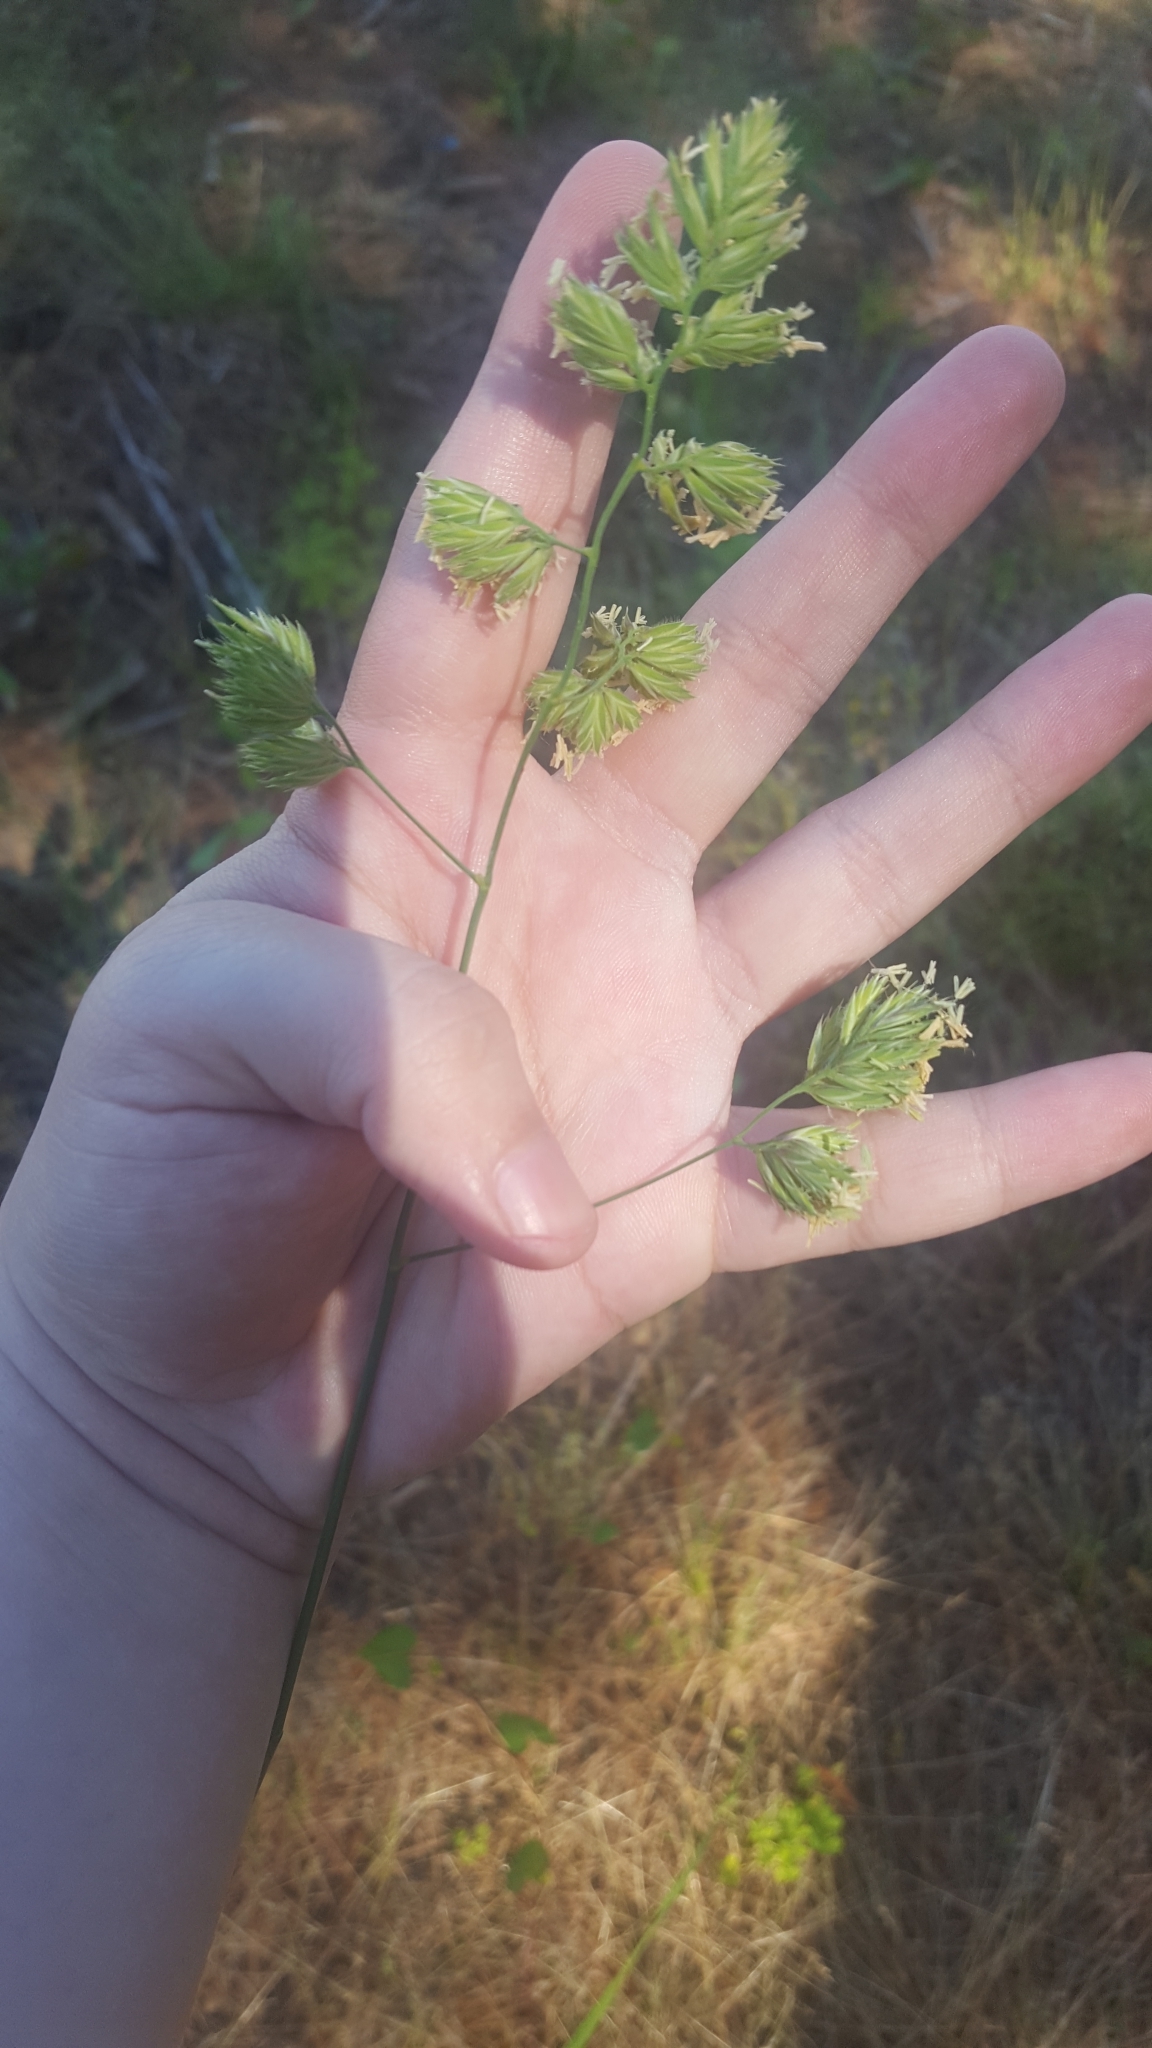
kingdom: Plantae
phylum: Tracheophyta
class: Liliopsida
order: Poales
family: Poaceae
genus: Dactylis
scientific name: Dactylis glomerata
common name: Orchardgrass
